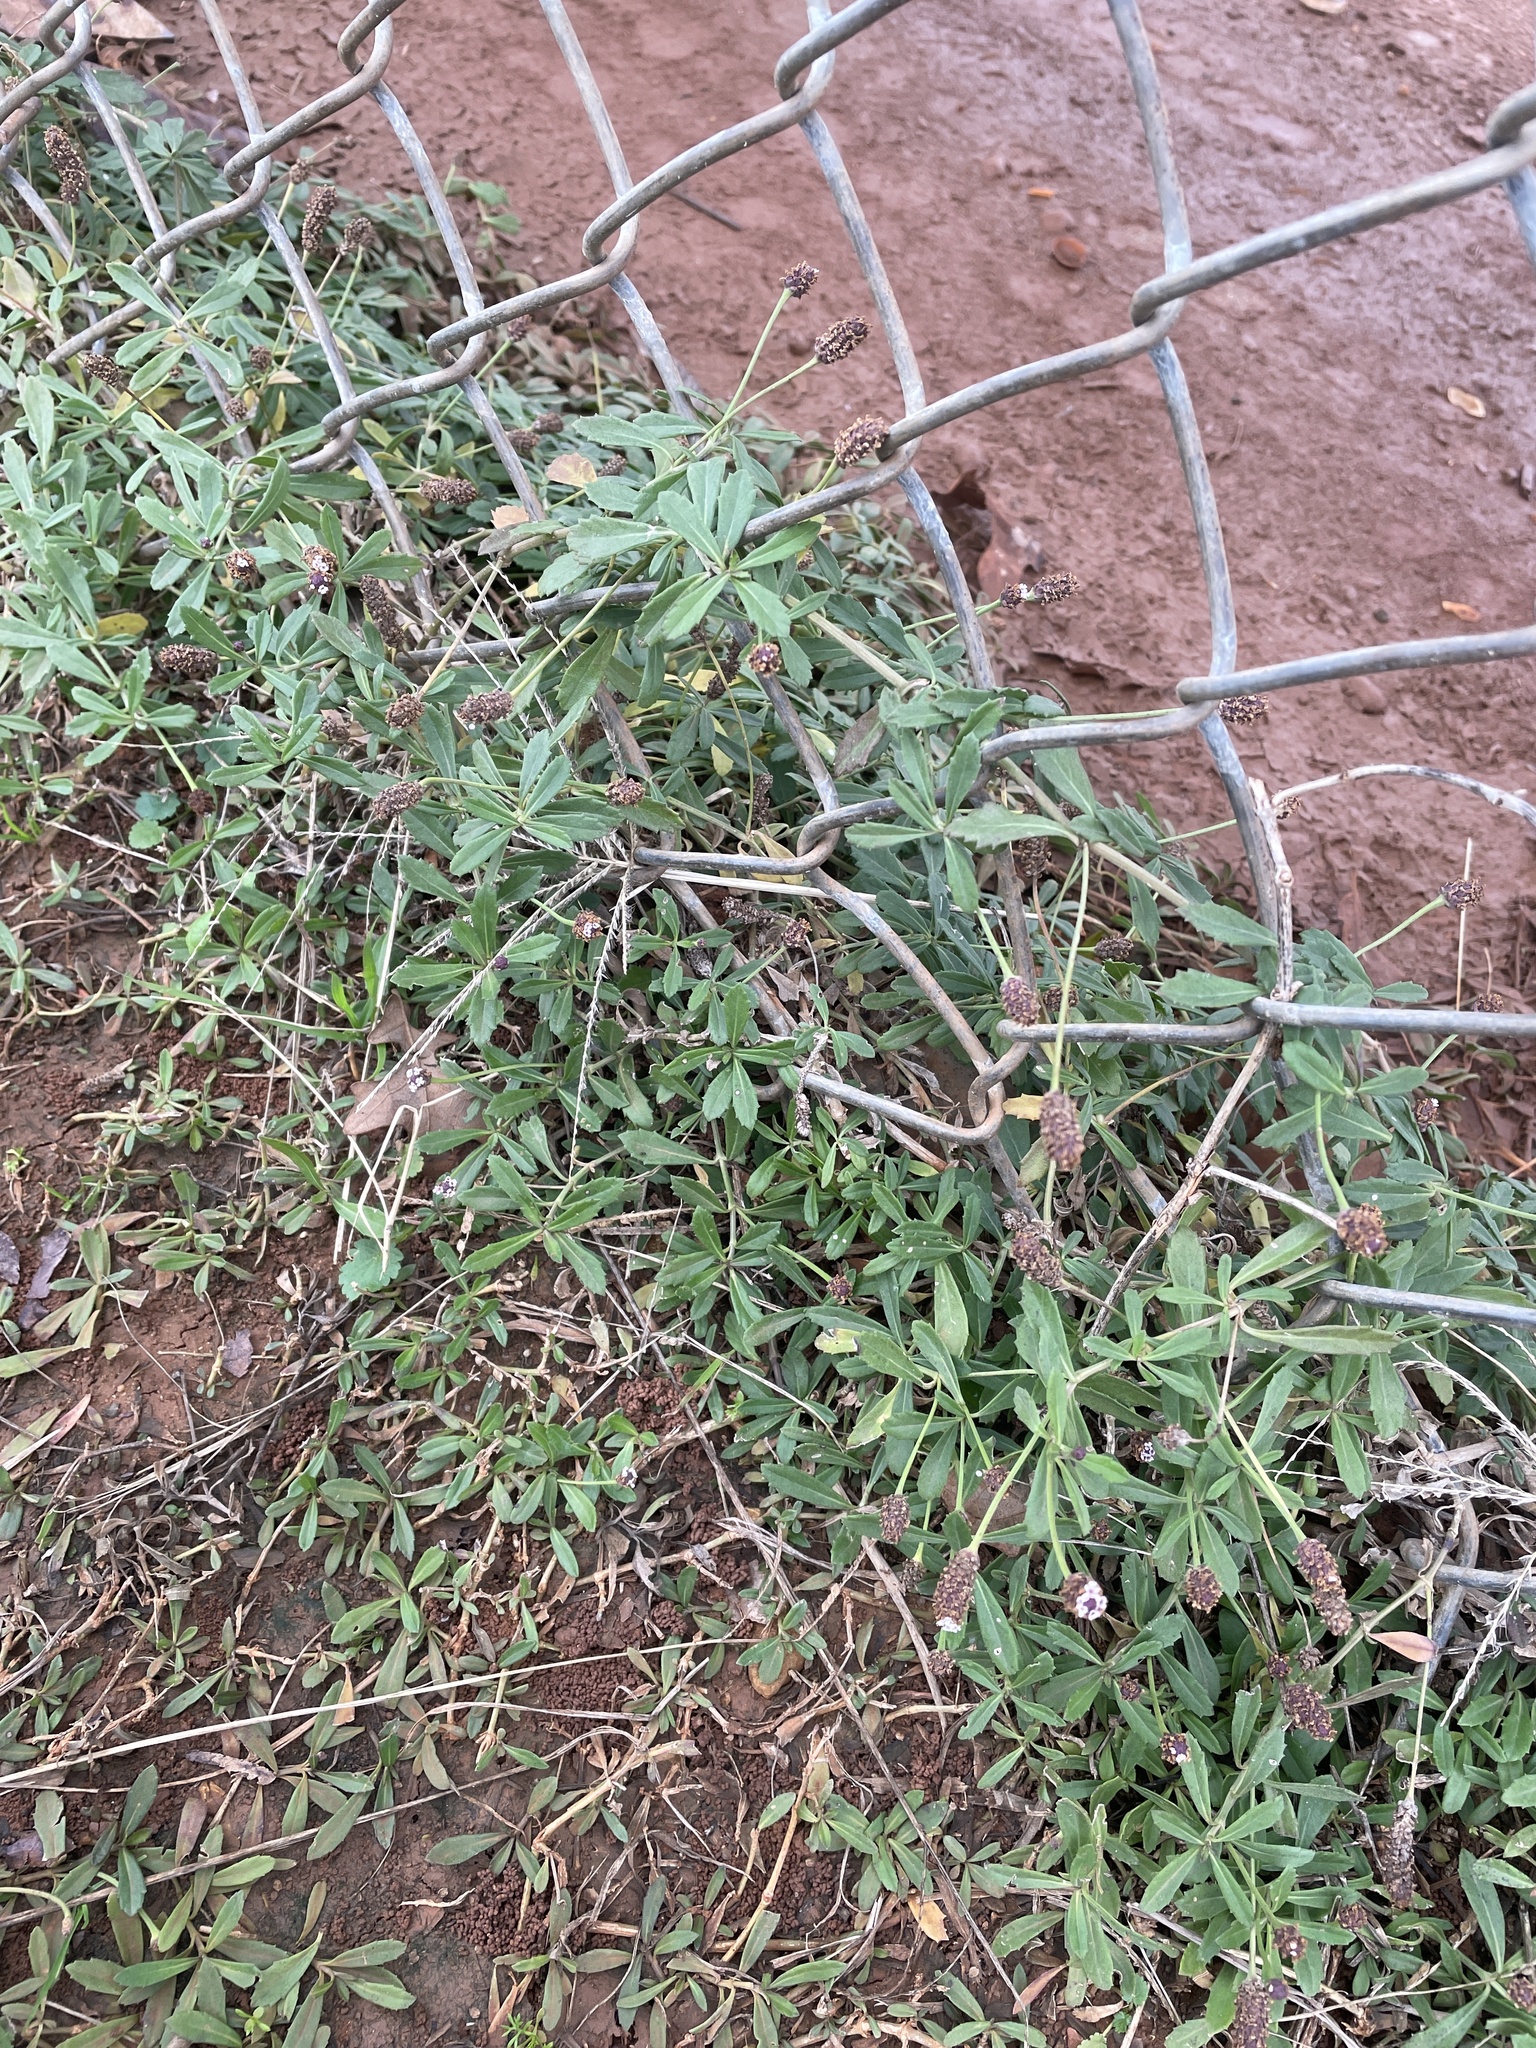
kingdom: Plantae
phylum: Tracheophyta
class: Magnoliopsida
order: Lamiales
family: Verbenaceae
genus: Phyla
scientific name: Phyla nodiflora
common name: Frogfruit
